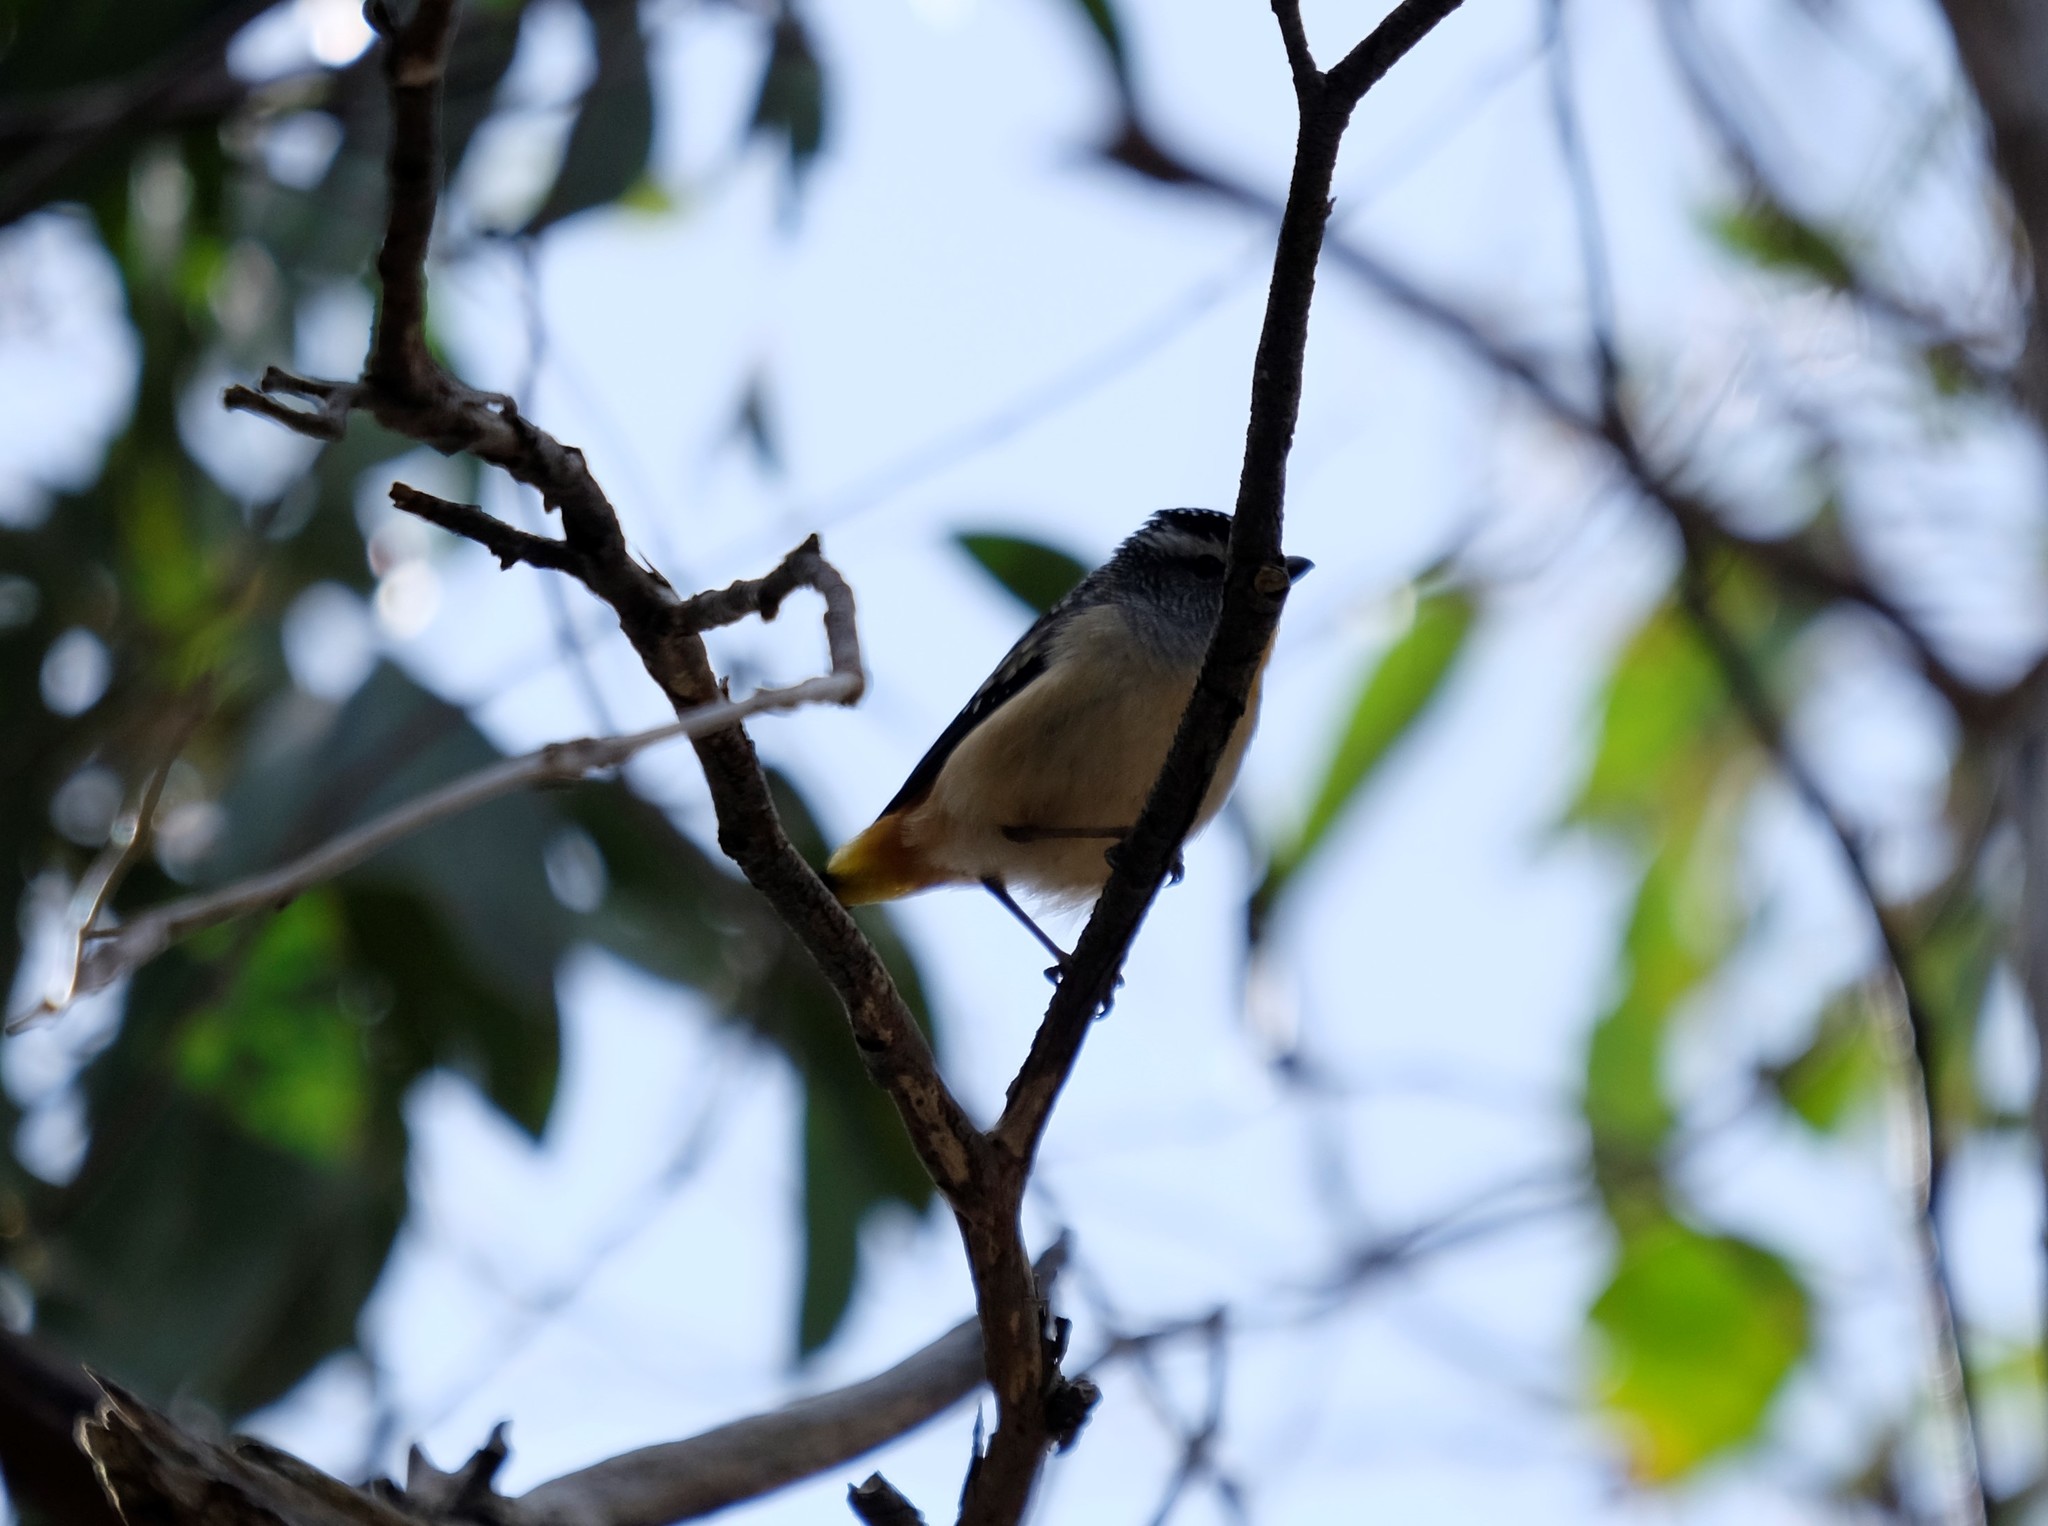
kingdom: Animalia
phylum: Chordata
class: Aves
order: Passeriformes
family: Pardalotidae
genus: Pardalotus
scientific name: Pardalotus punctatus
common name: Spotted pardalote
